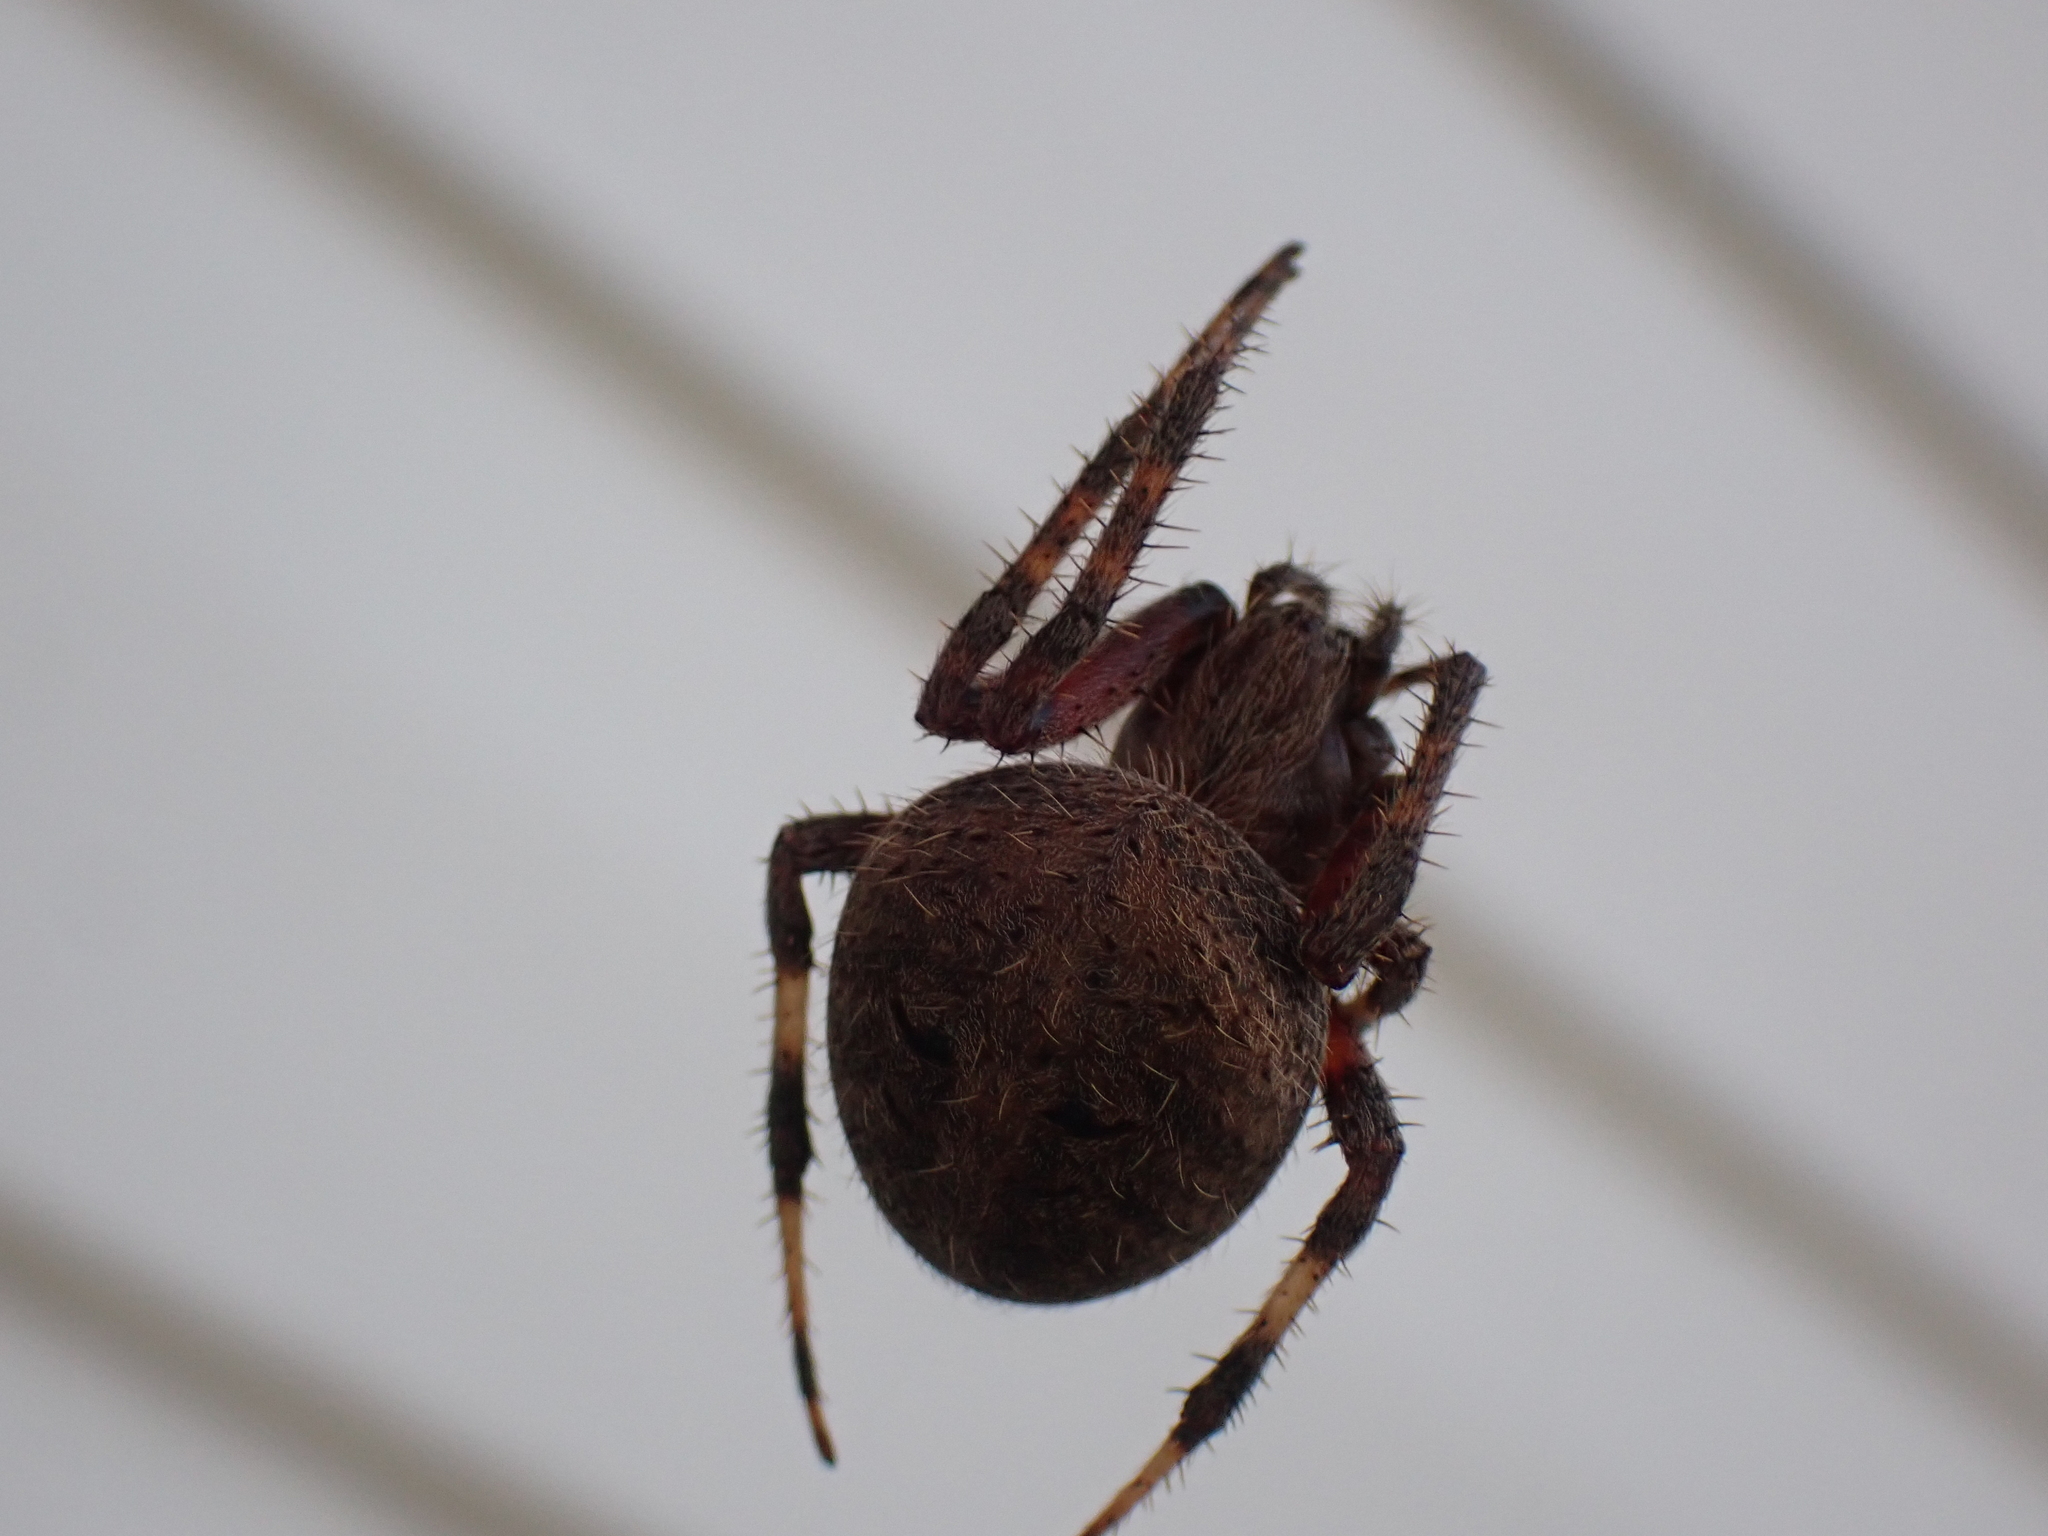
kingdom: Animalia
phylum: Arthropoda
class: Arachnida
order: Araneae
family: Araneidae
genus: Neoscona
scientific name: Neoscona crucifera
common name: Spotted orbweaver
